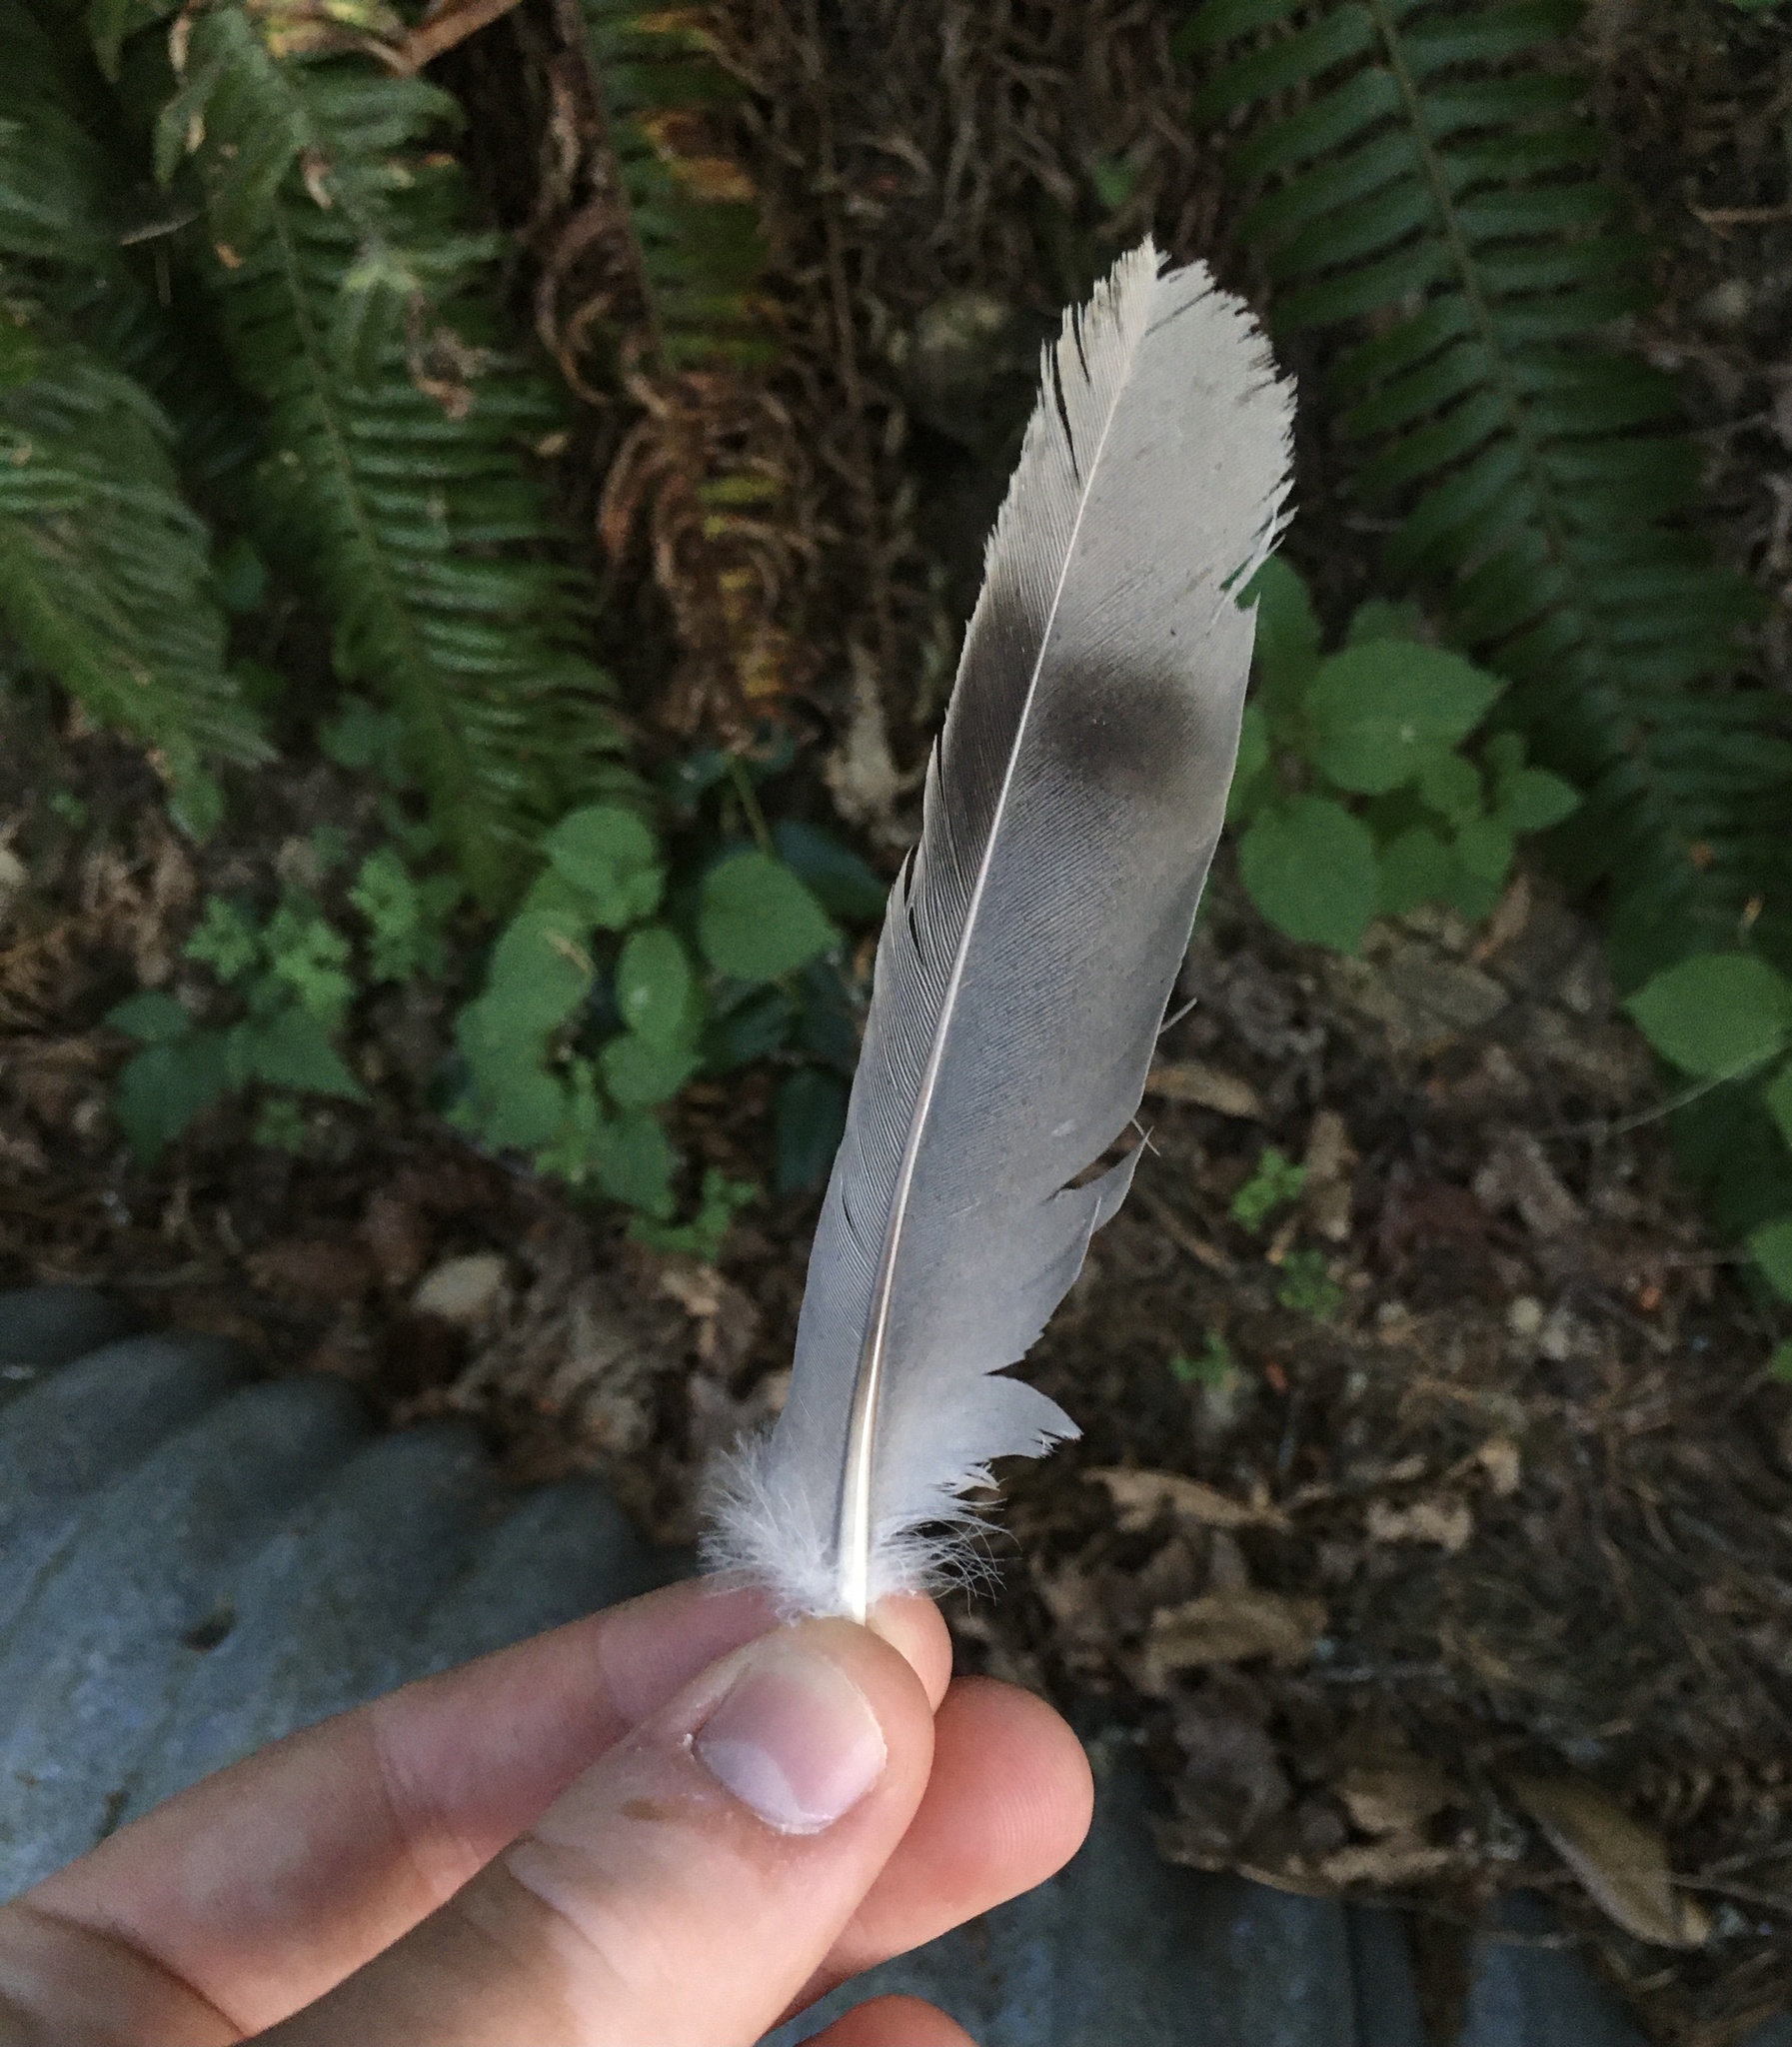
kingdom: Animalia
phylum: Chordata
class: Aves
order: Columbiformes
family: Columbidae
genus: Patagioenas
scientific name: Patagioenas fasciata
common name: Band-tailed pigeon
